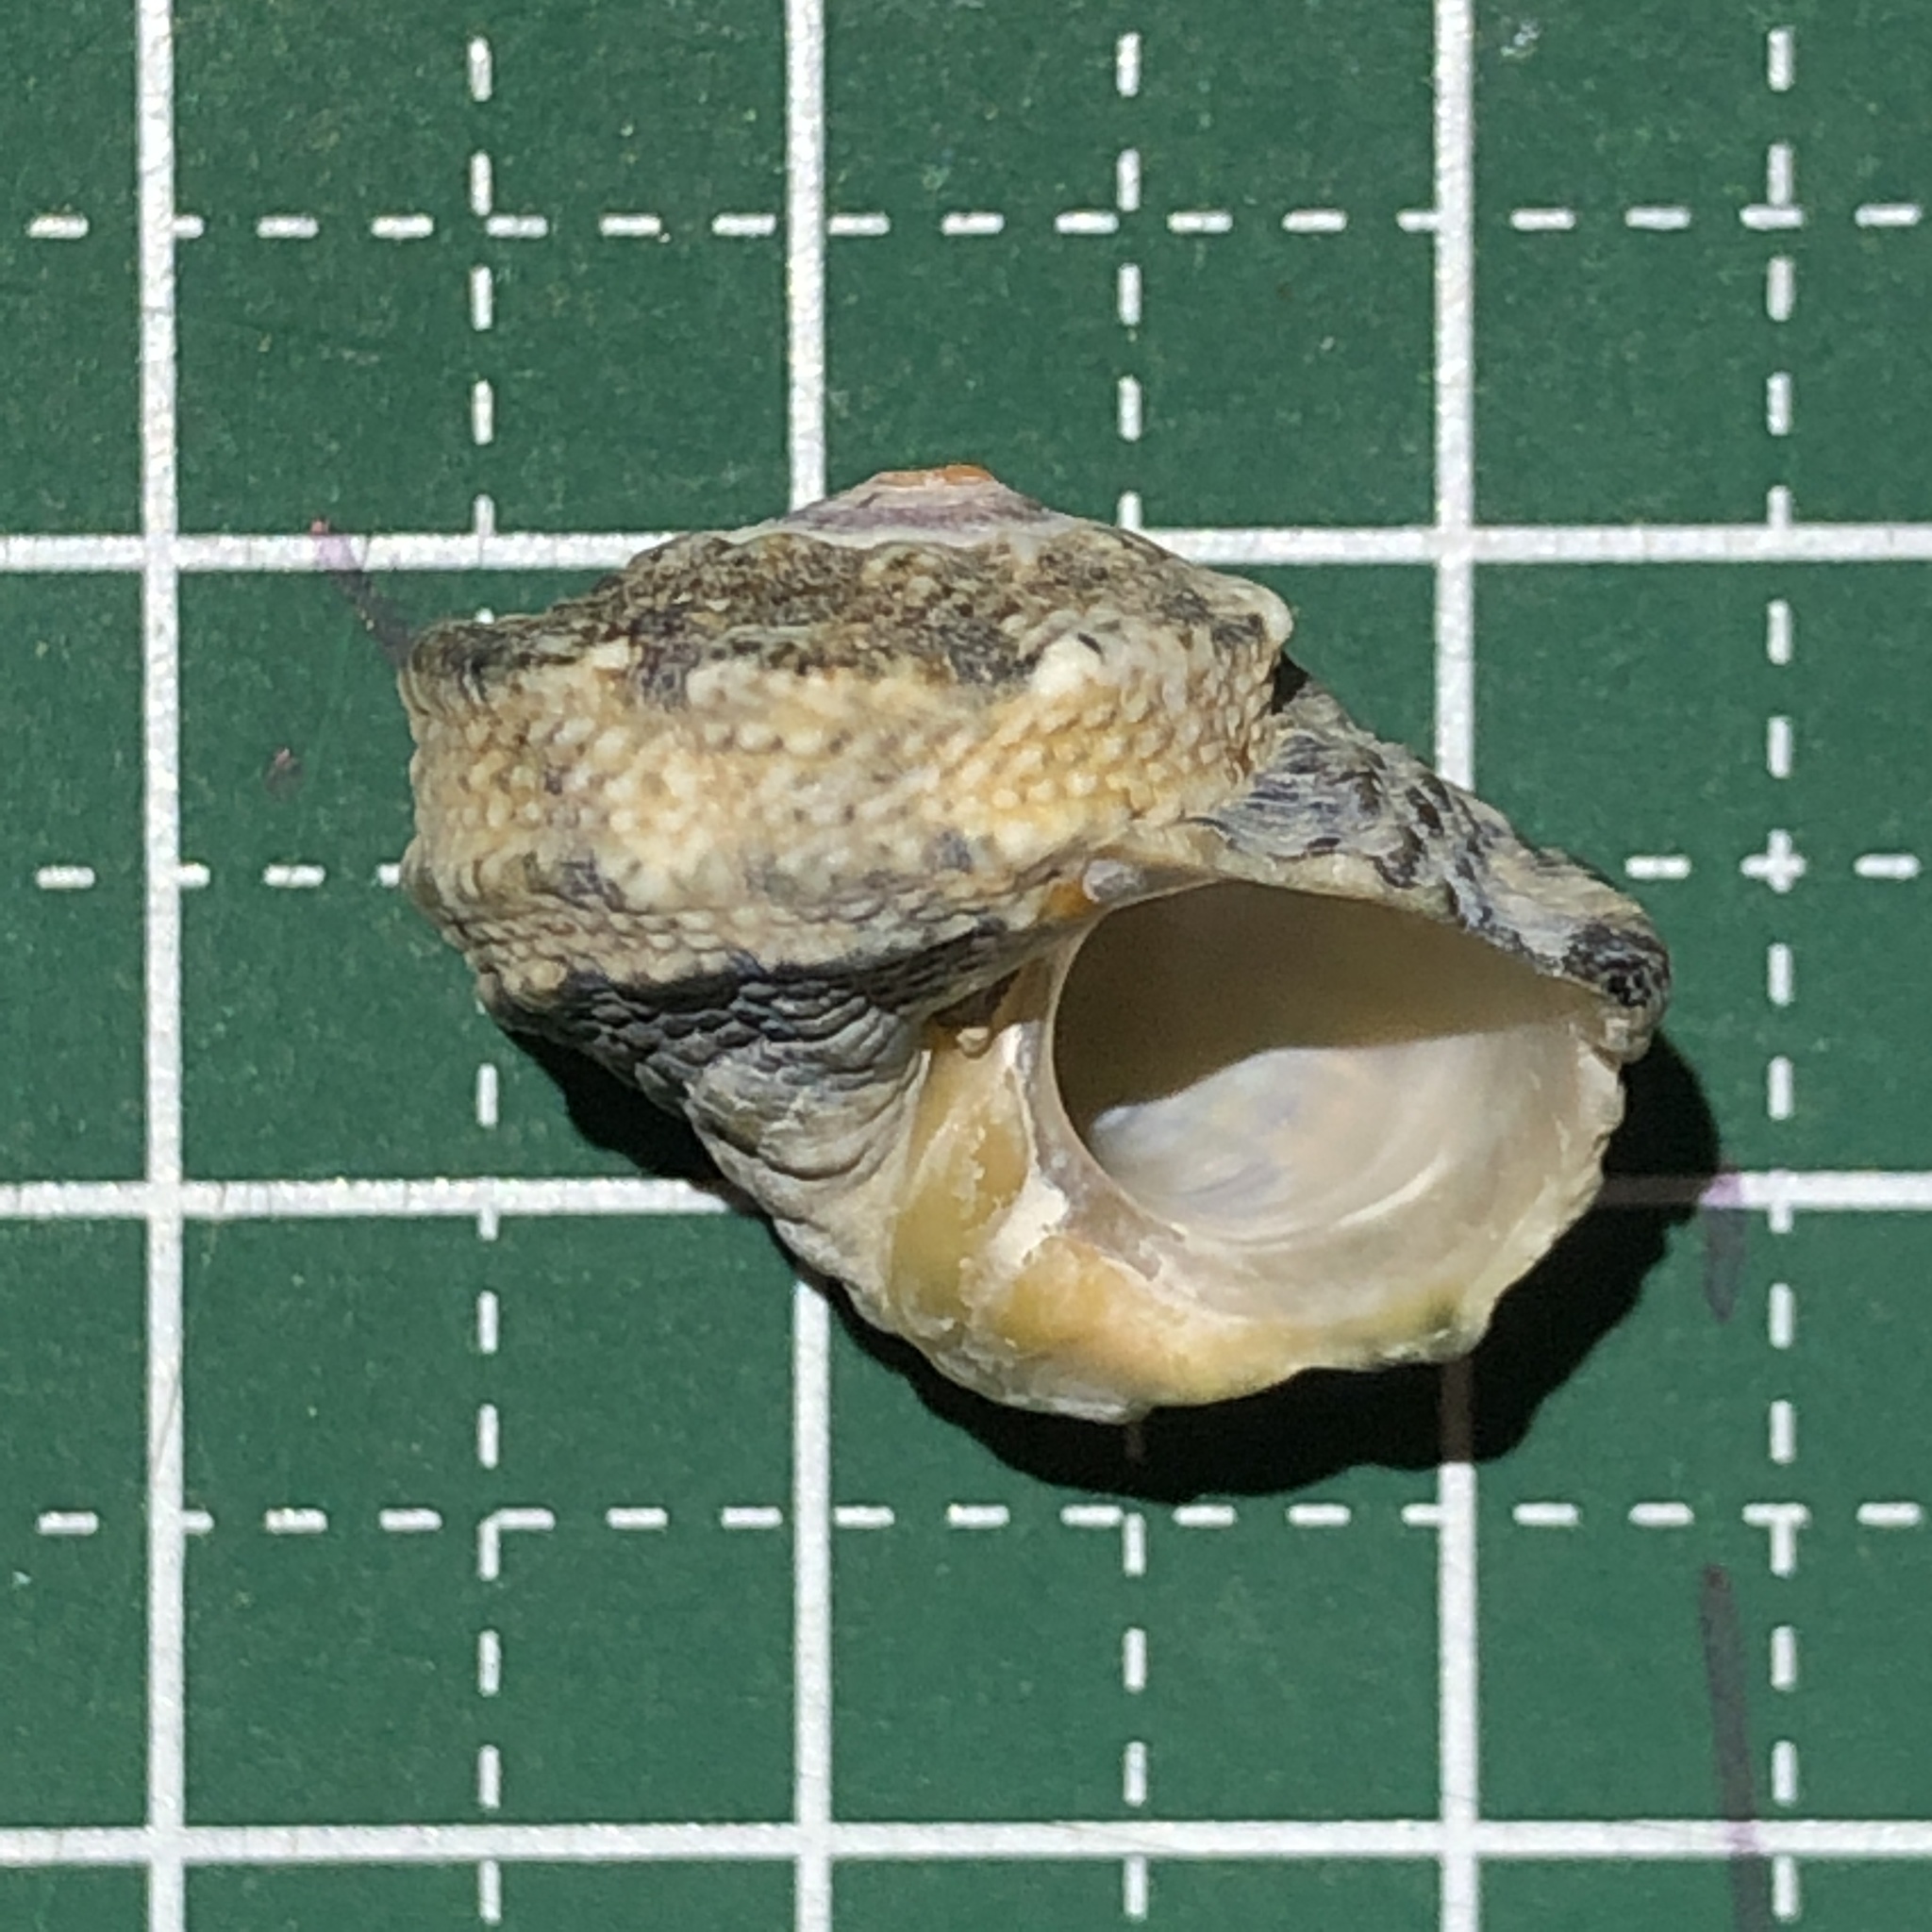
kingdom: Animalia
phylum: Mollusca
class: Gastropoda
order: Trochida
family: Turbinidae
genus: Lunella
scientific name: Lunella coronata
